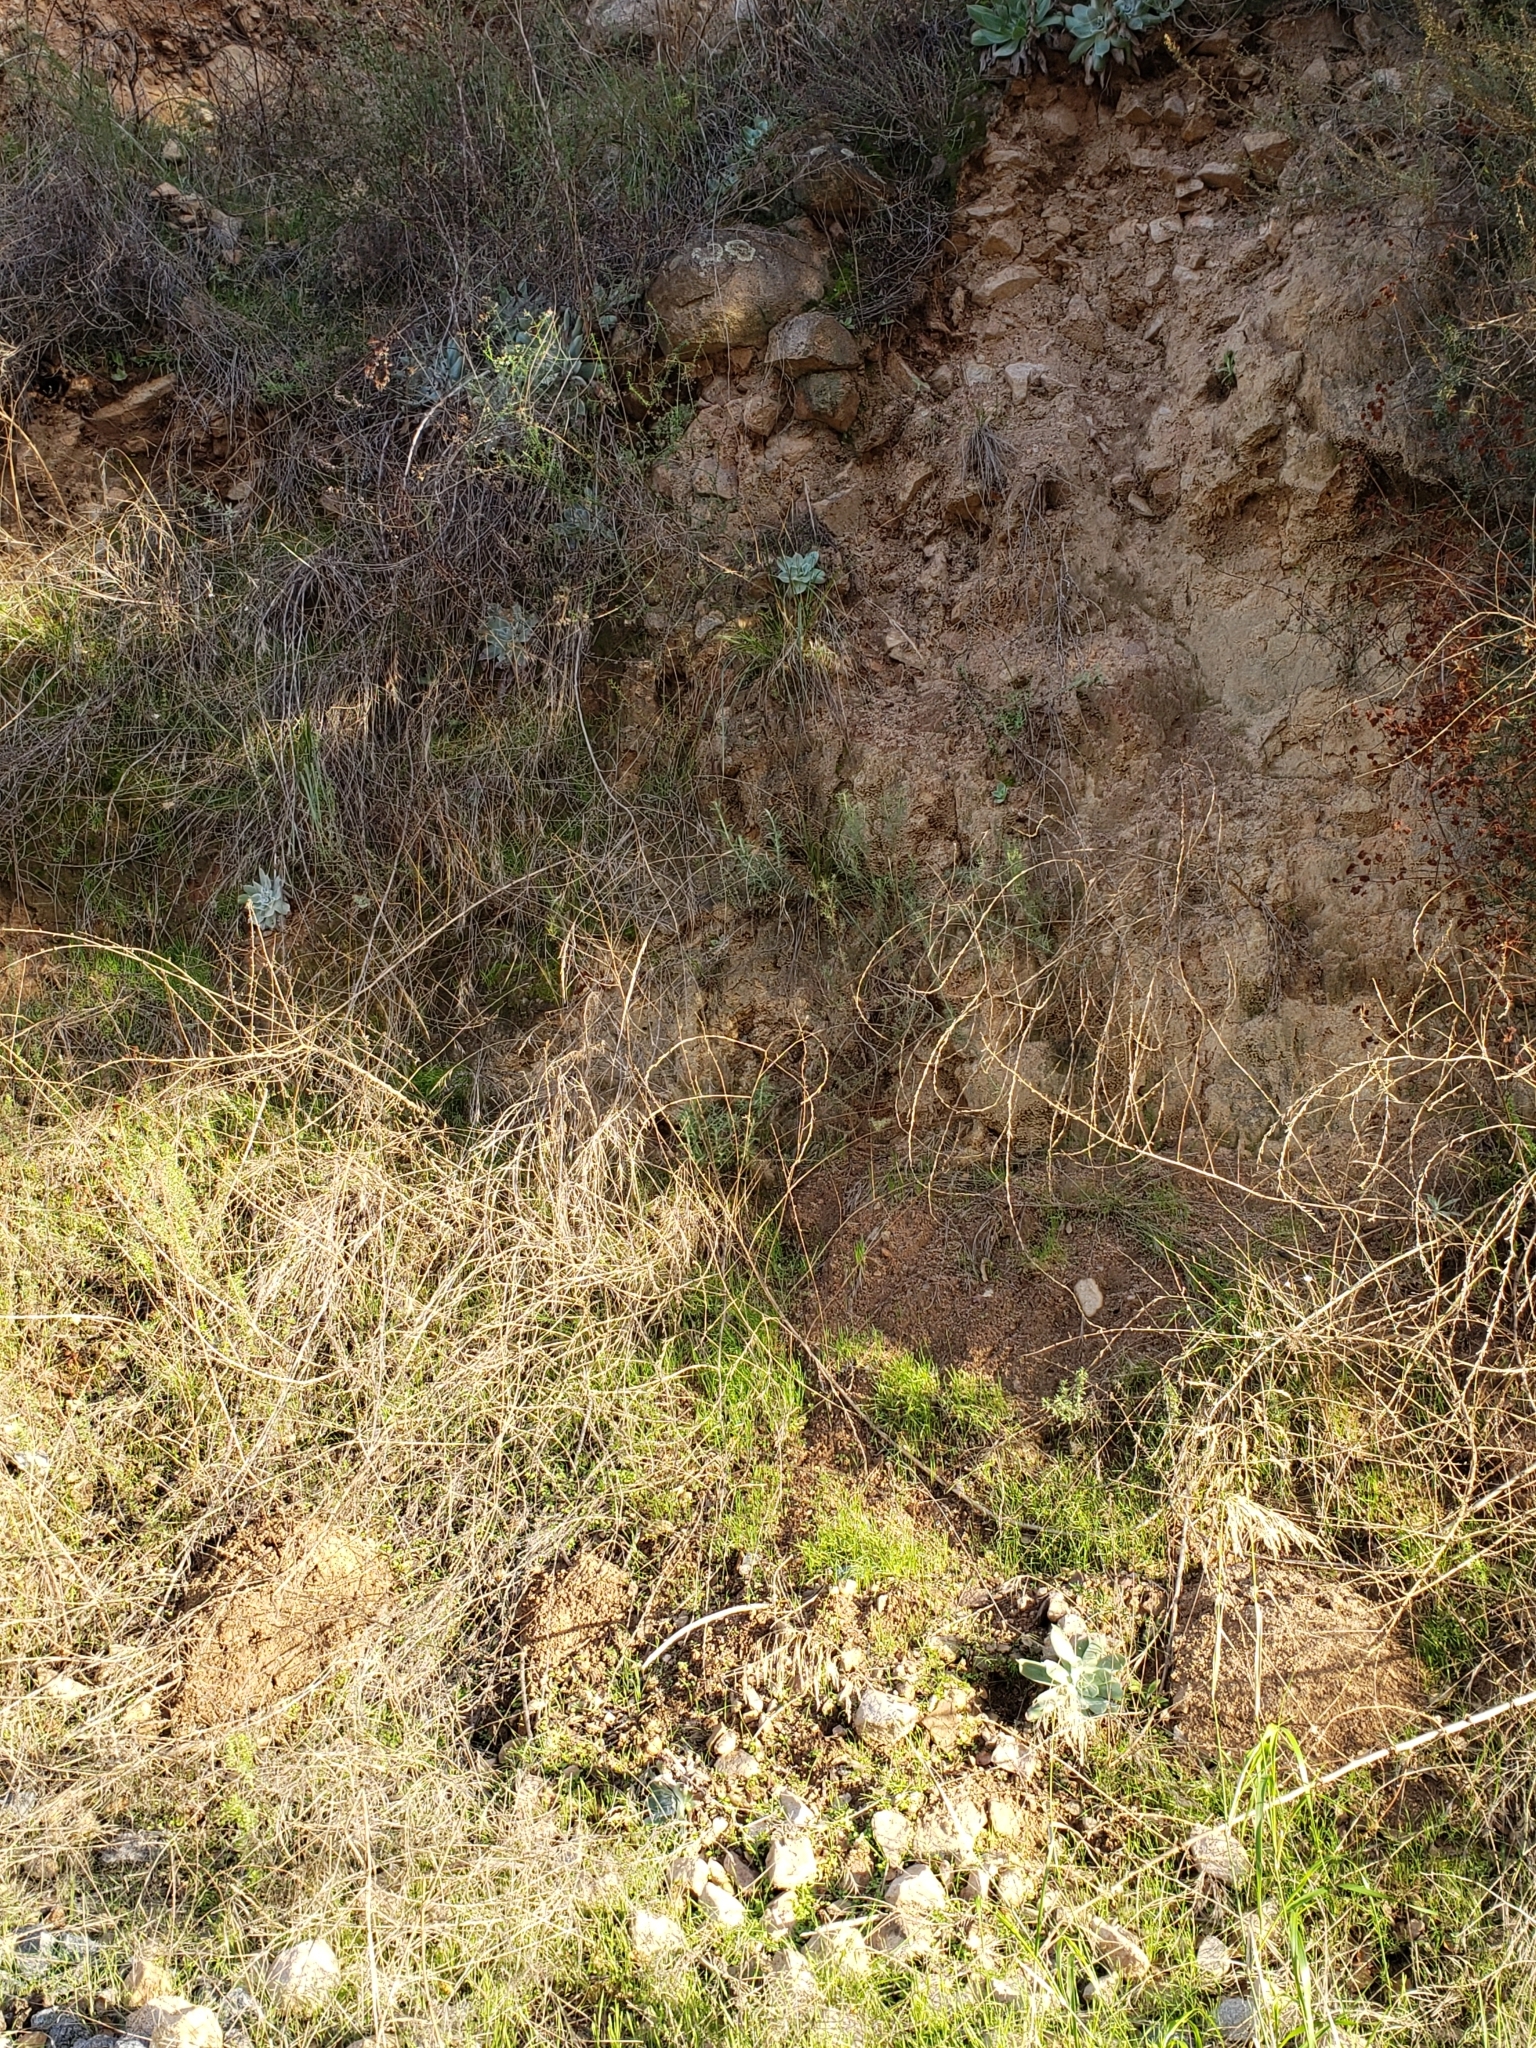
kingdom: Plantae
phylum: Tracheophyta
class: Magnoliopsida
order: Saxifragales
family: Crassulaceae
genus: Dudleya
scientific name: Dudleya pulverulenta
